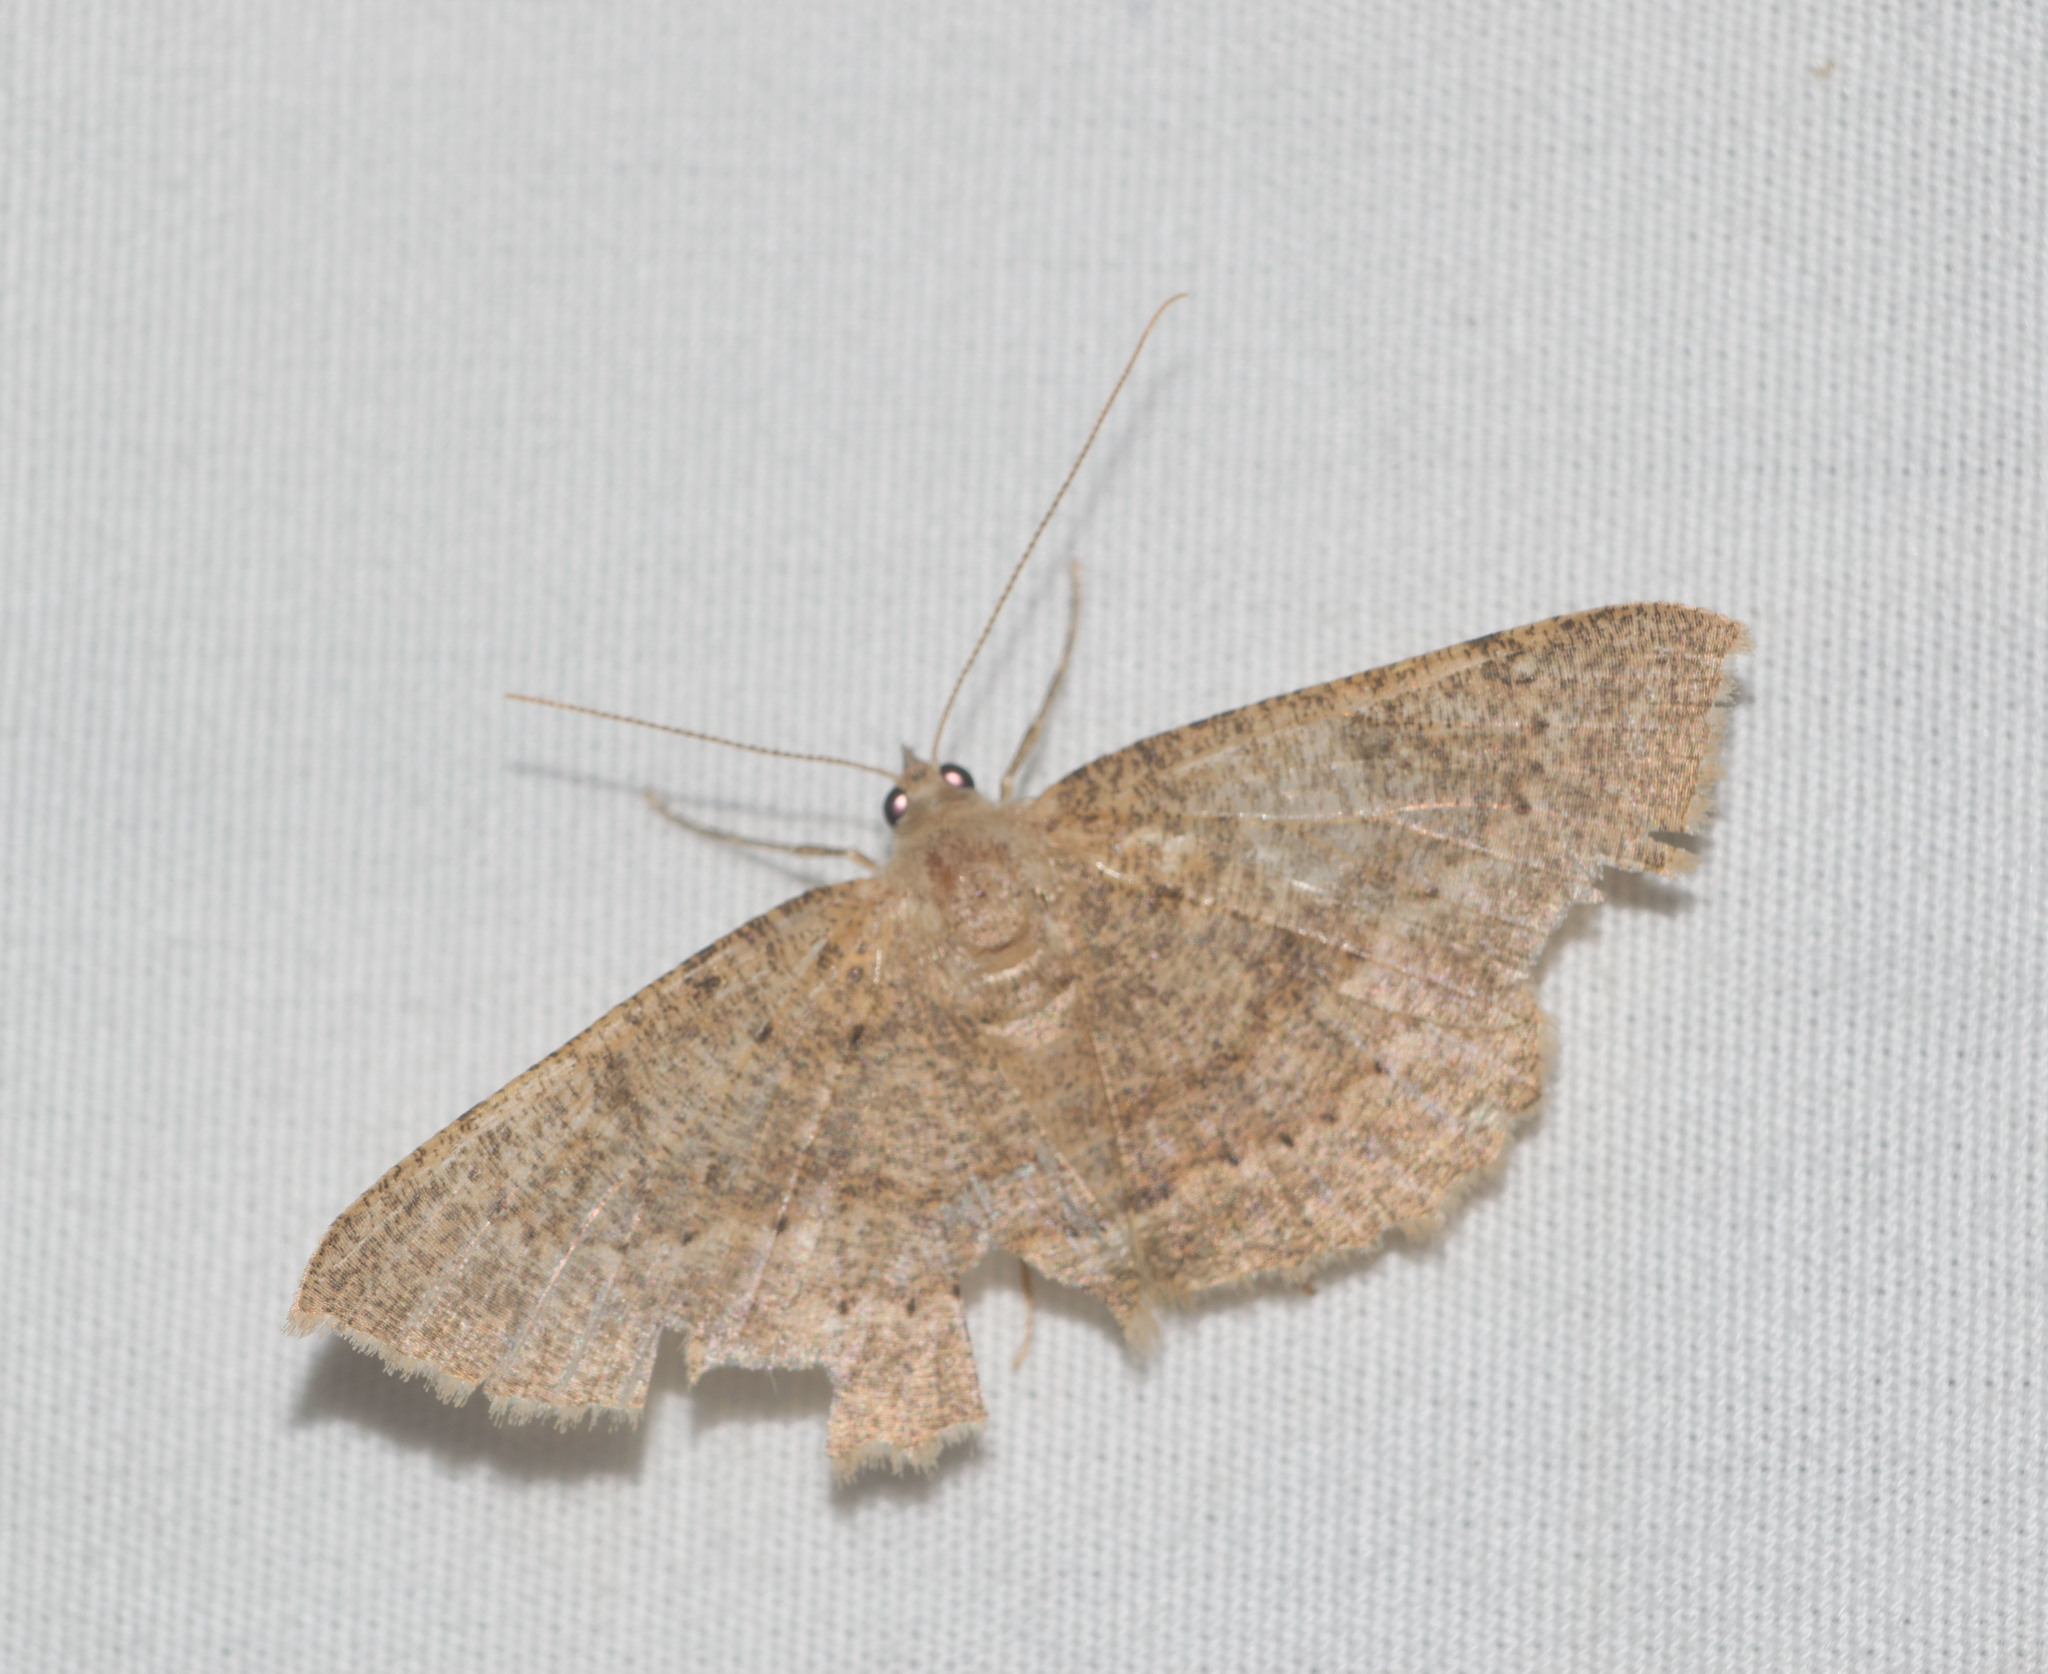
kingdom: Animalia
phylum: Arthropoda
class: Insecta
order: Lepidoptera
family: Geometridae
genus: Scotorythra
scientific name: Scotorythra corticea
